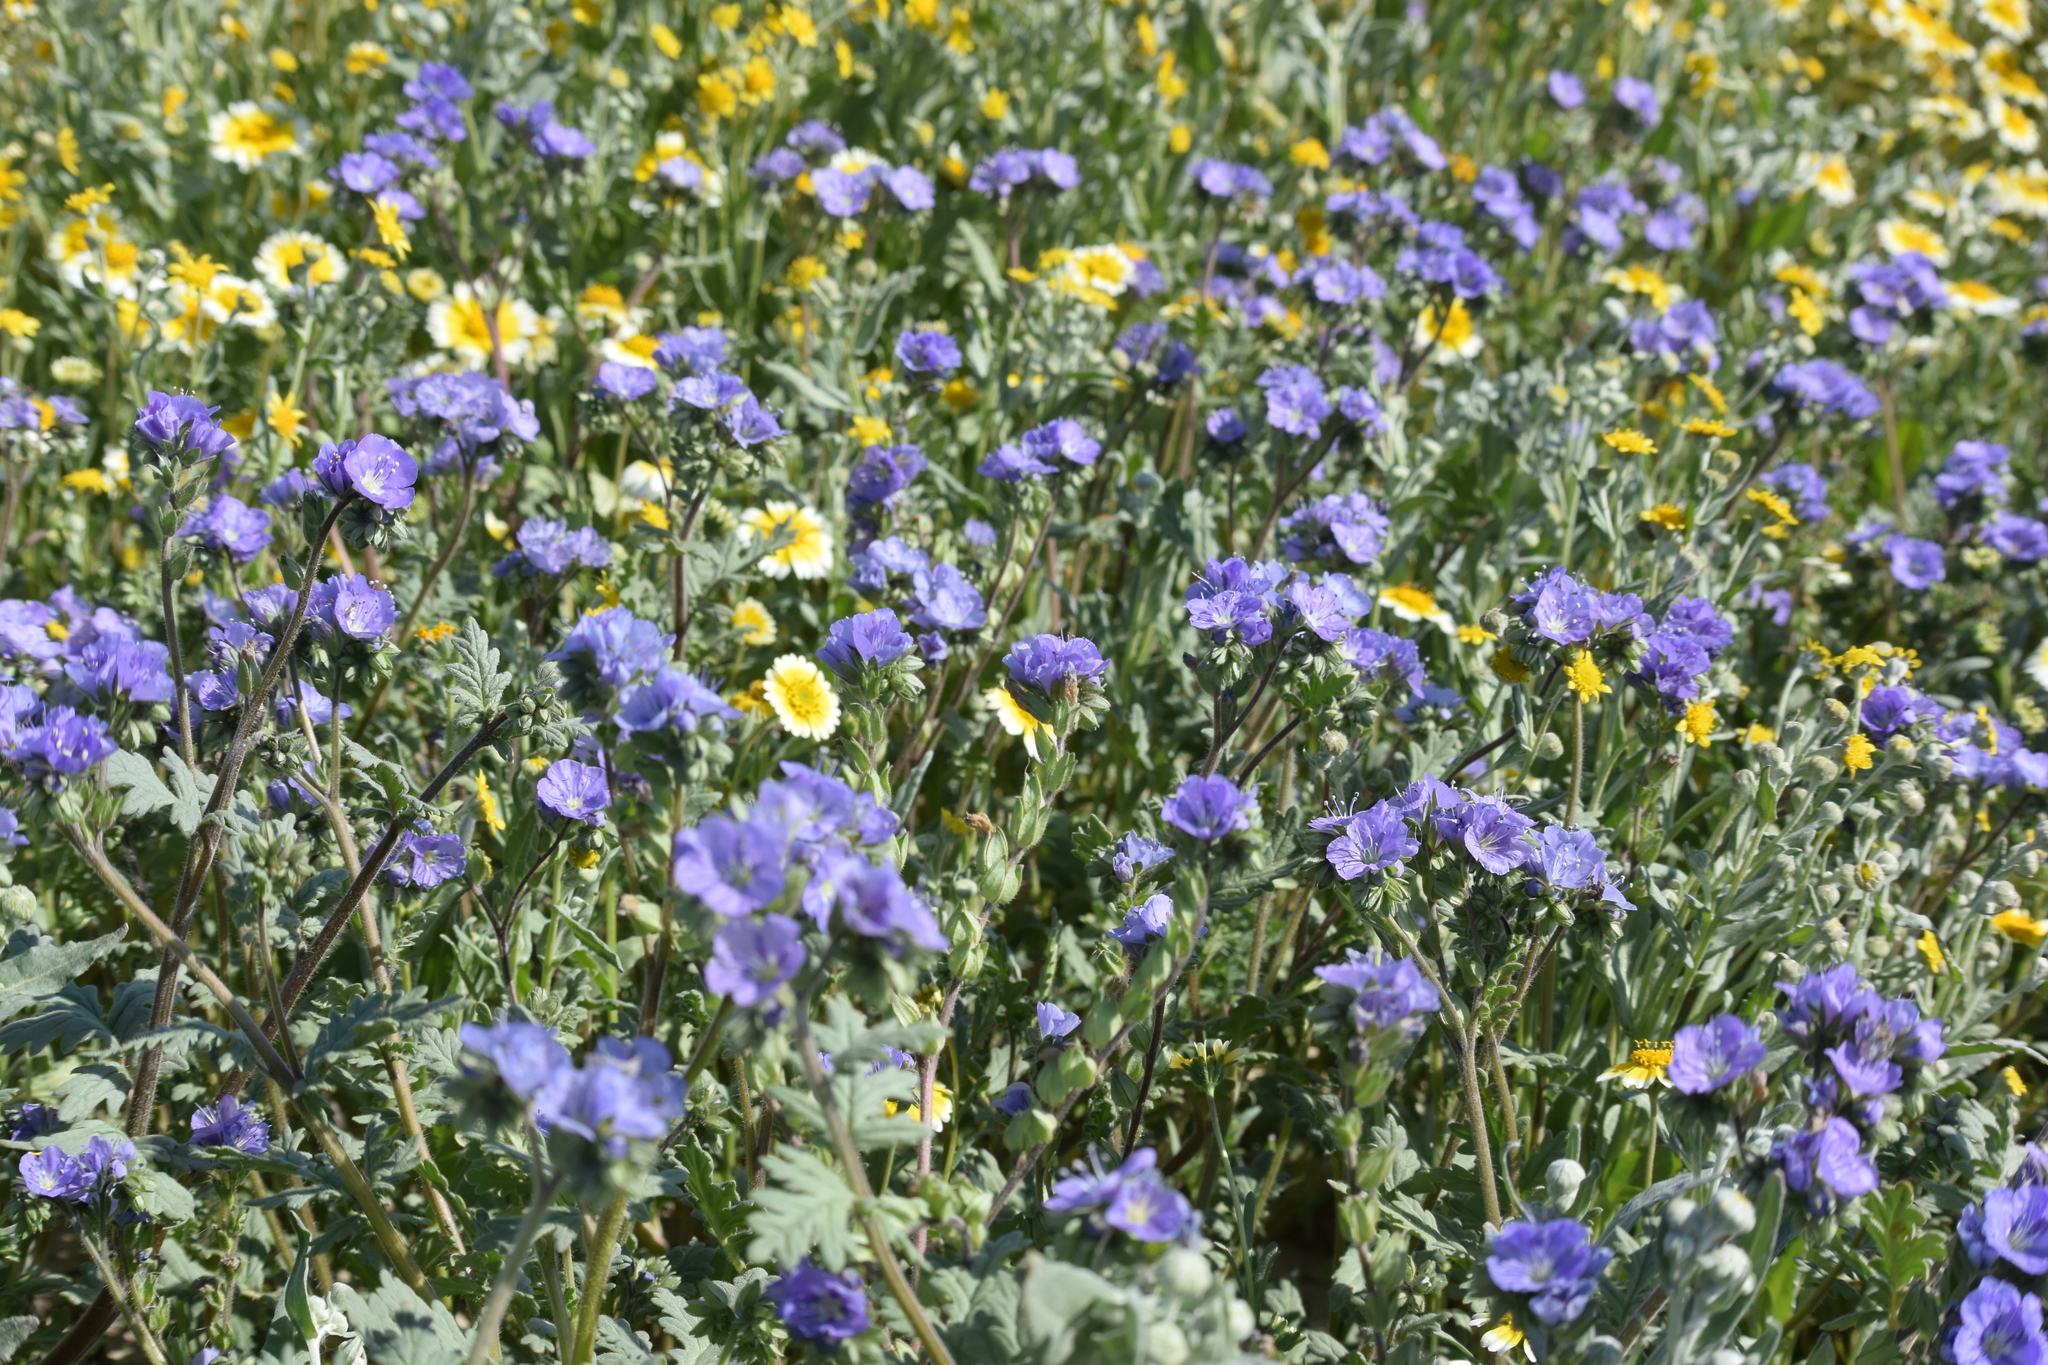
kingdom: Plantae
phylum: Tracheophyta
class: Magnoliopsida
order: Boraginales
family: Hydrophyllaceae
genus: Phacelia
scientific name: Phacelia ciliata
